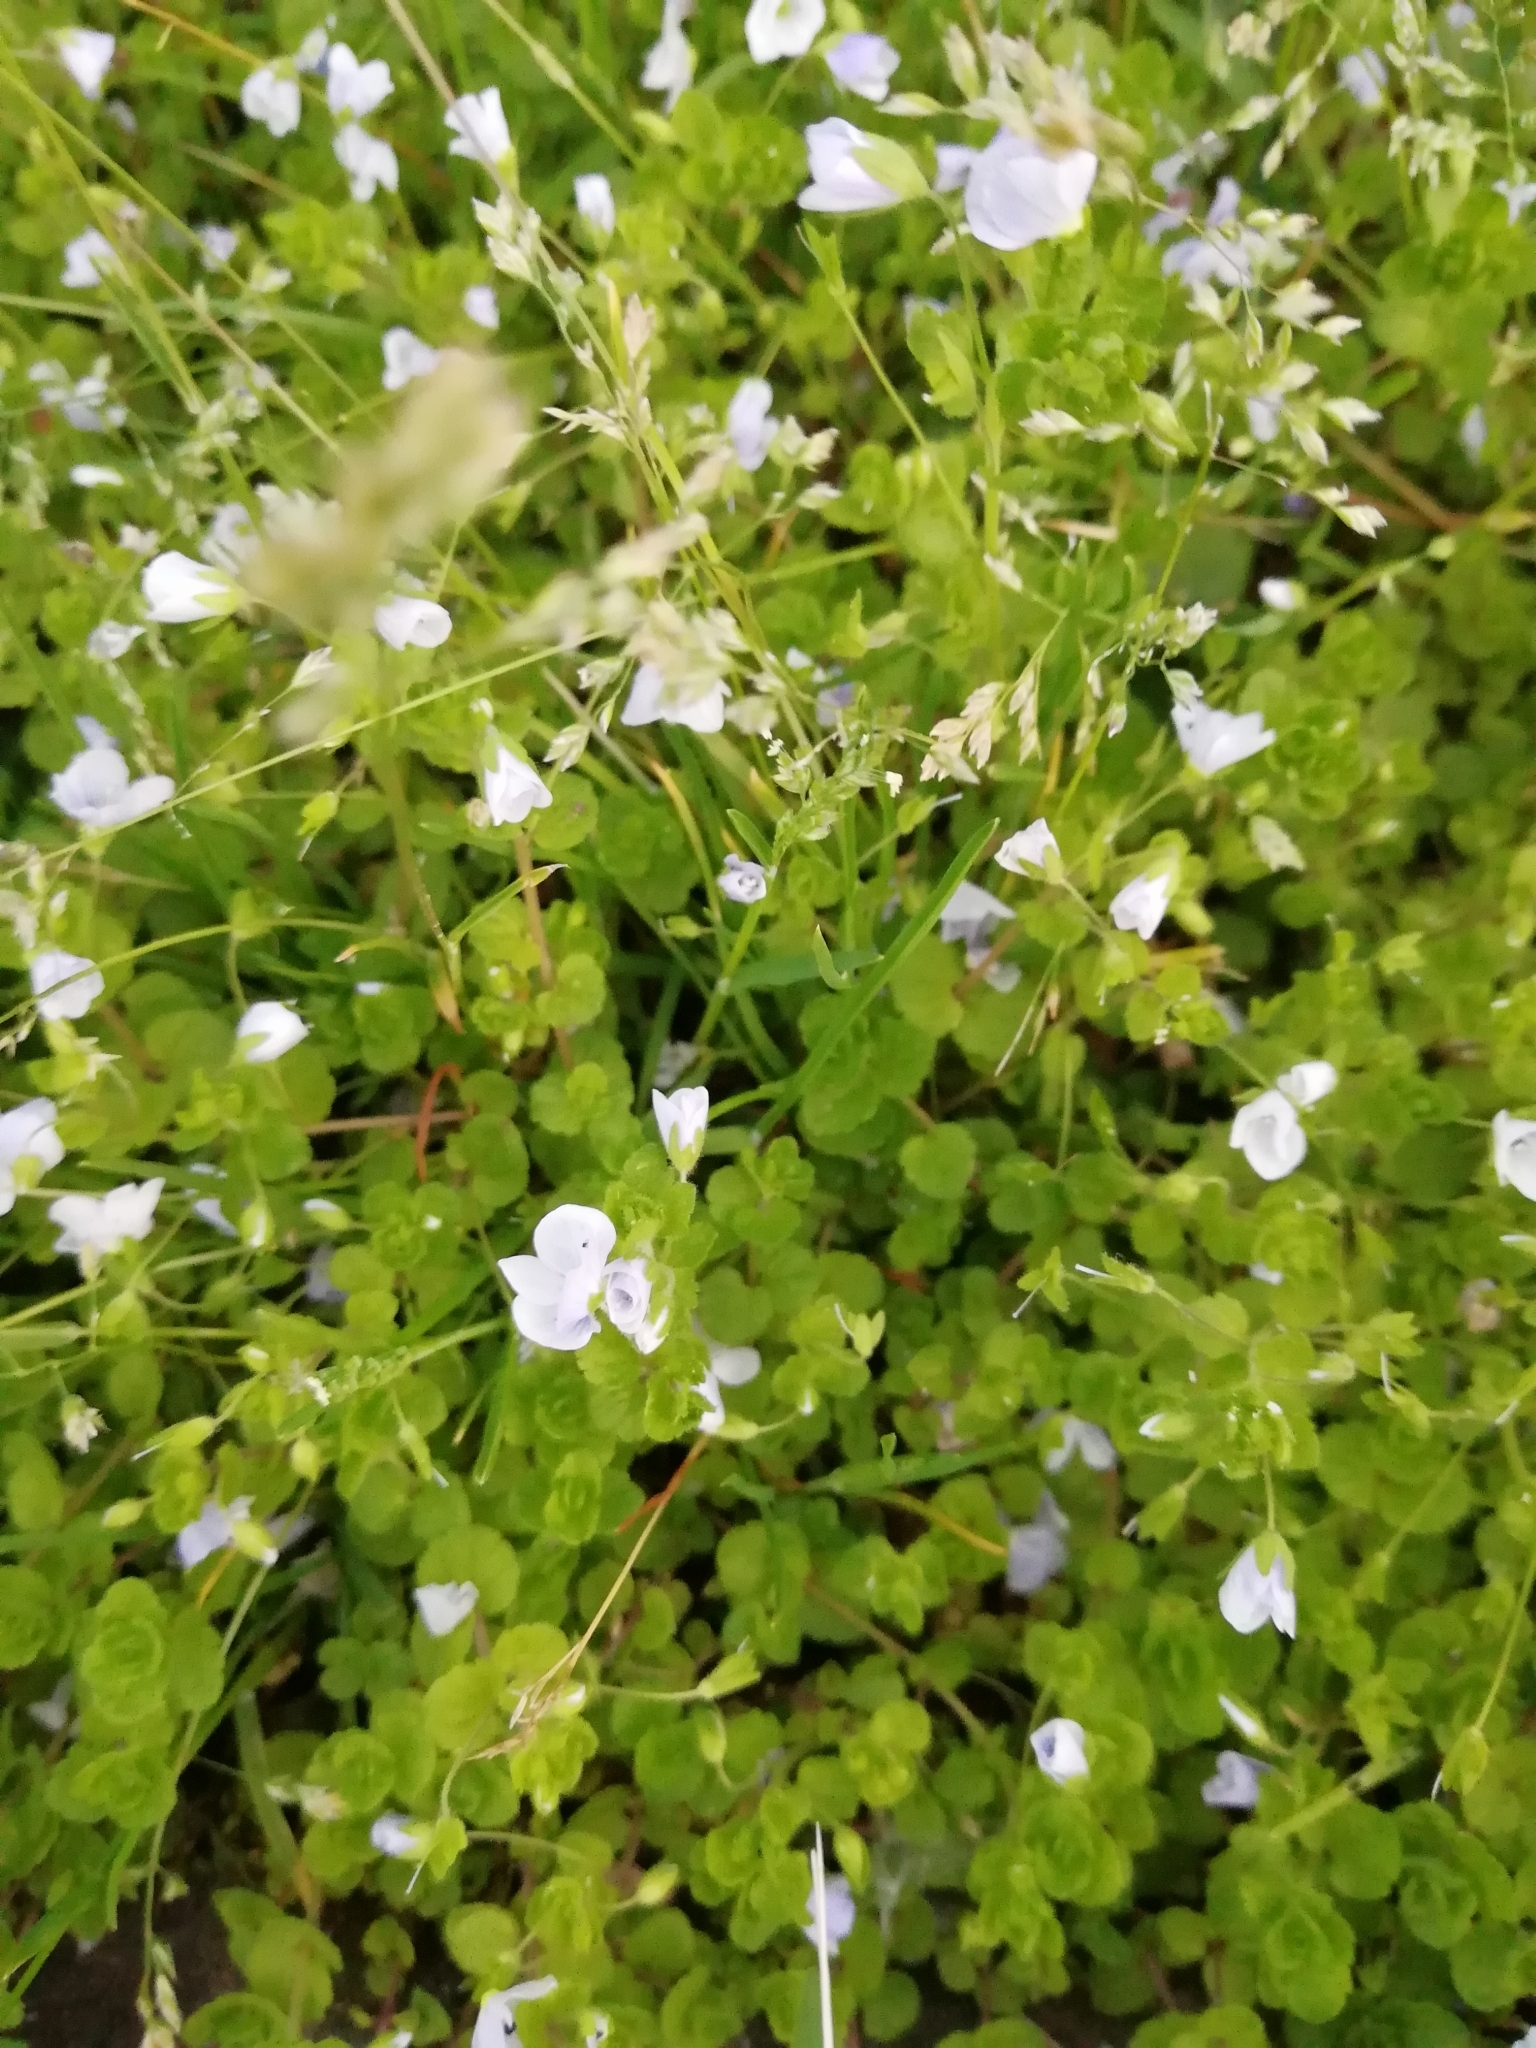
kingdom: Plantae
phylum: Tracheophyta
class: Magnoliopsida
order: Lamiales
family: Plantaginaceae
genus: Veronica
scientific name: Veronica filiformis
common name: Slender speedwell
